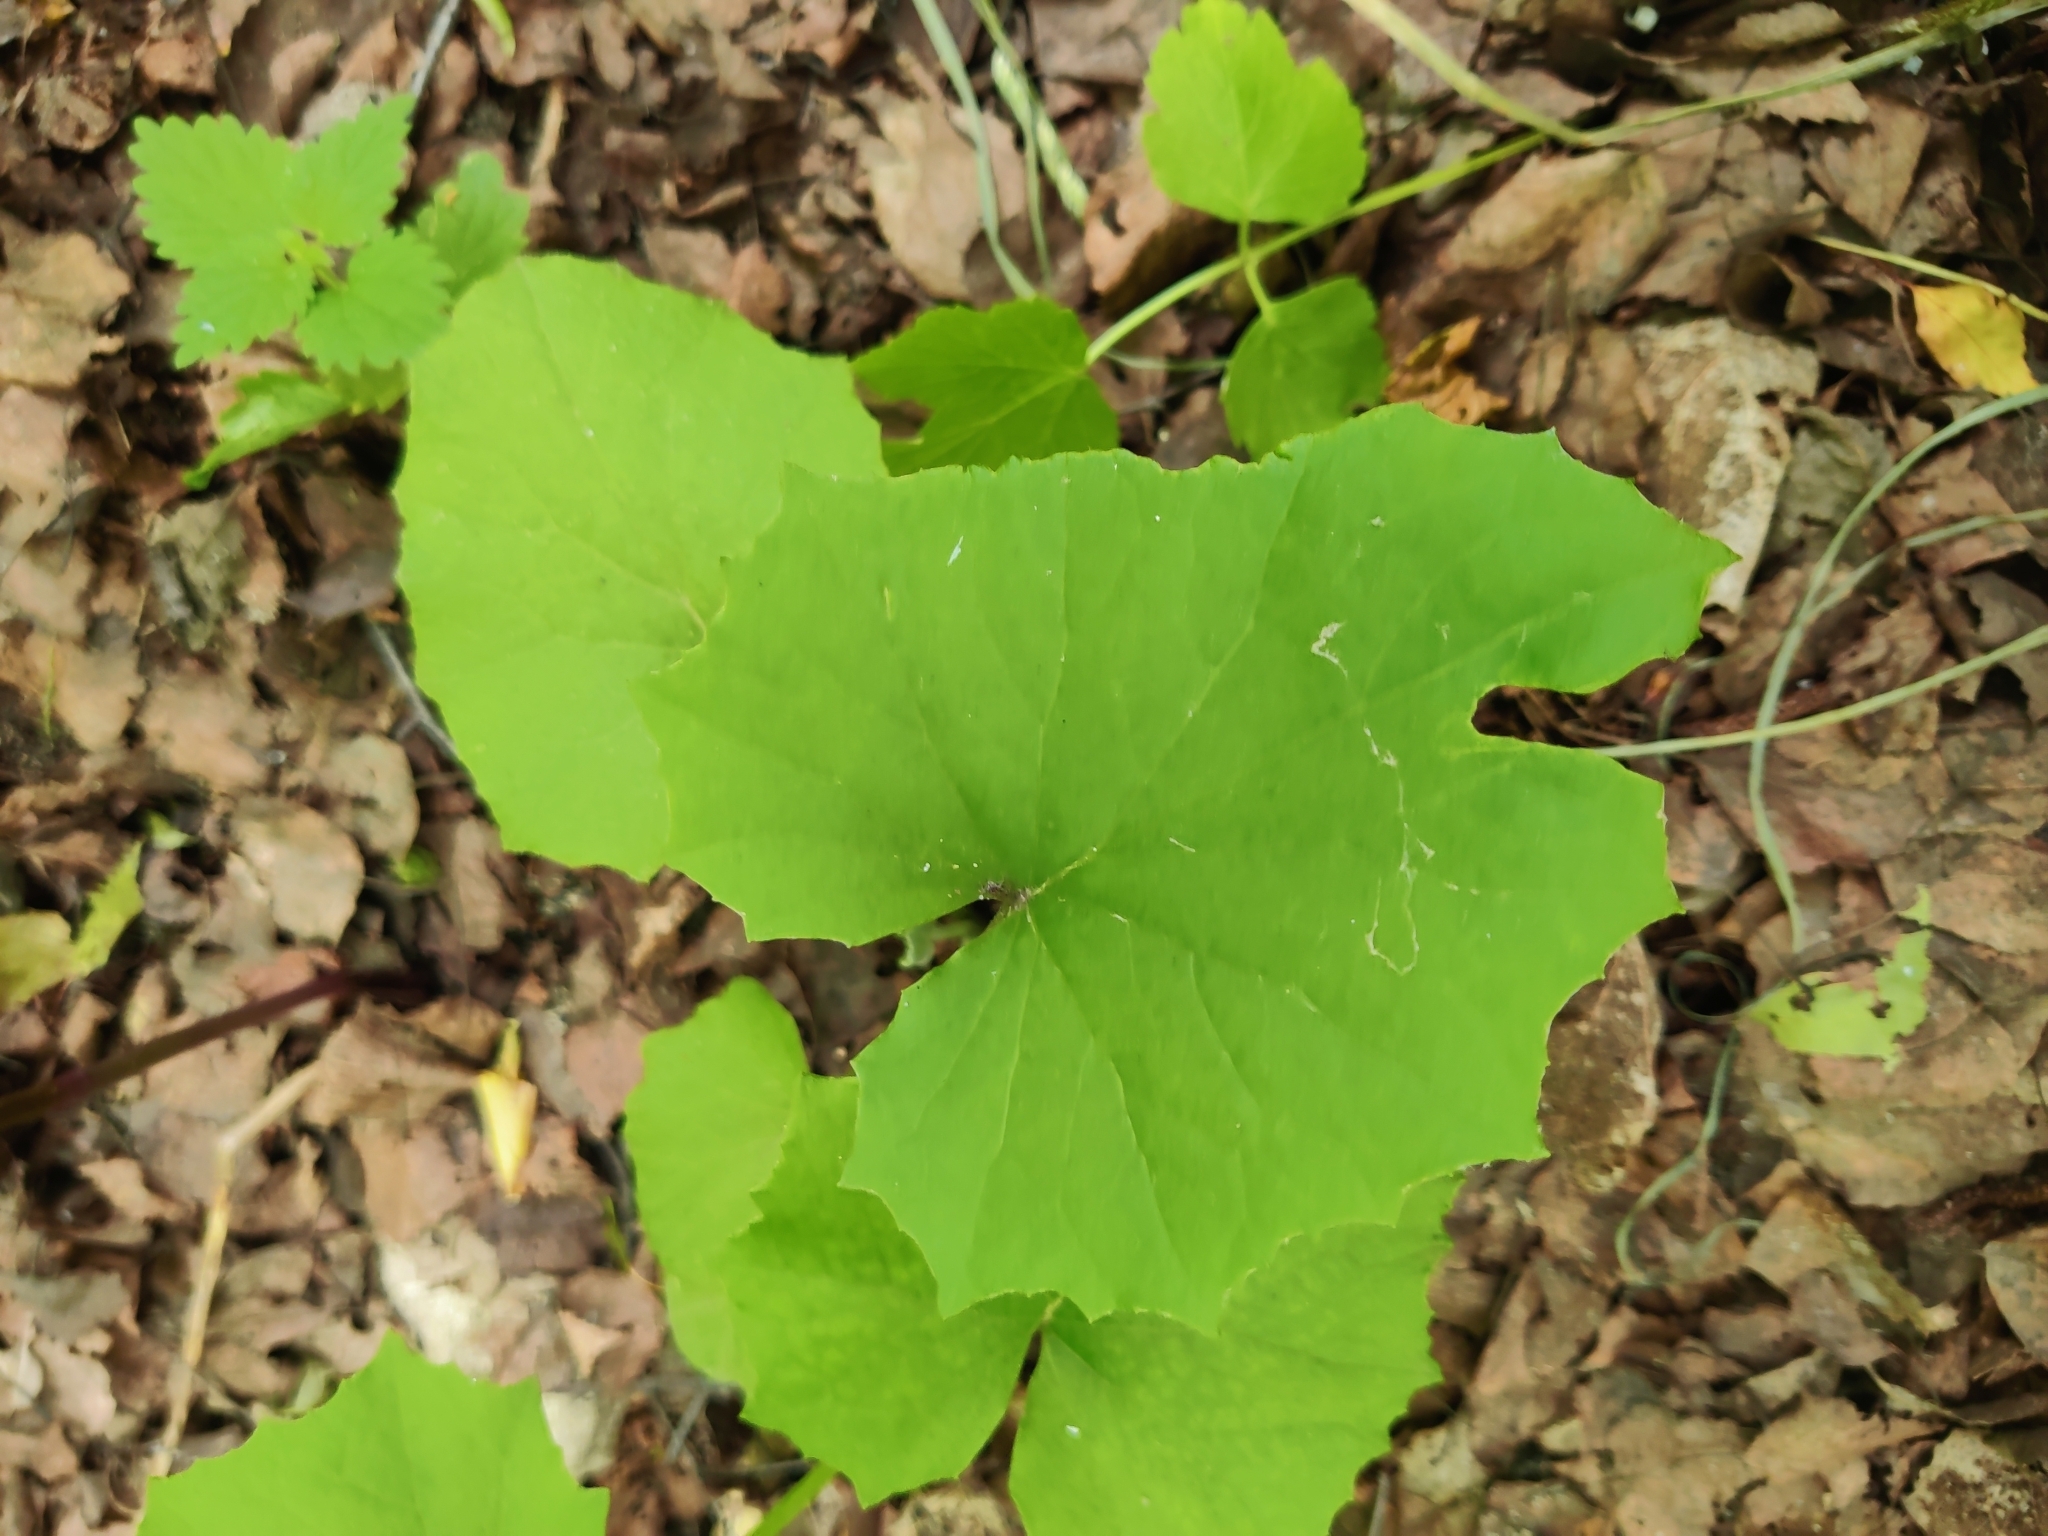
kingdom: Plantae
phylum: Tracheophyta
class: Magnoliopsida
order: Asterales
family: Asteraceae
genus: Tussilago
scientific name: Tussilago farfara
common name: Coltsfoot
